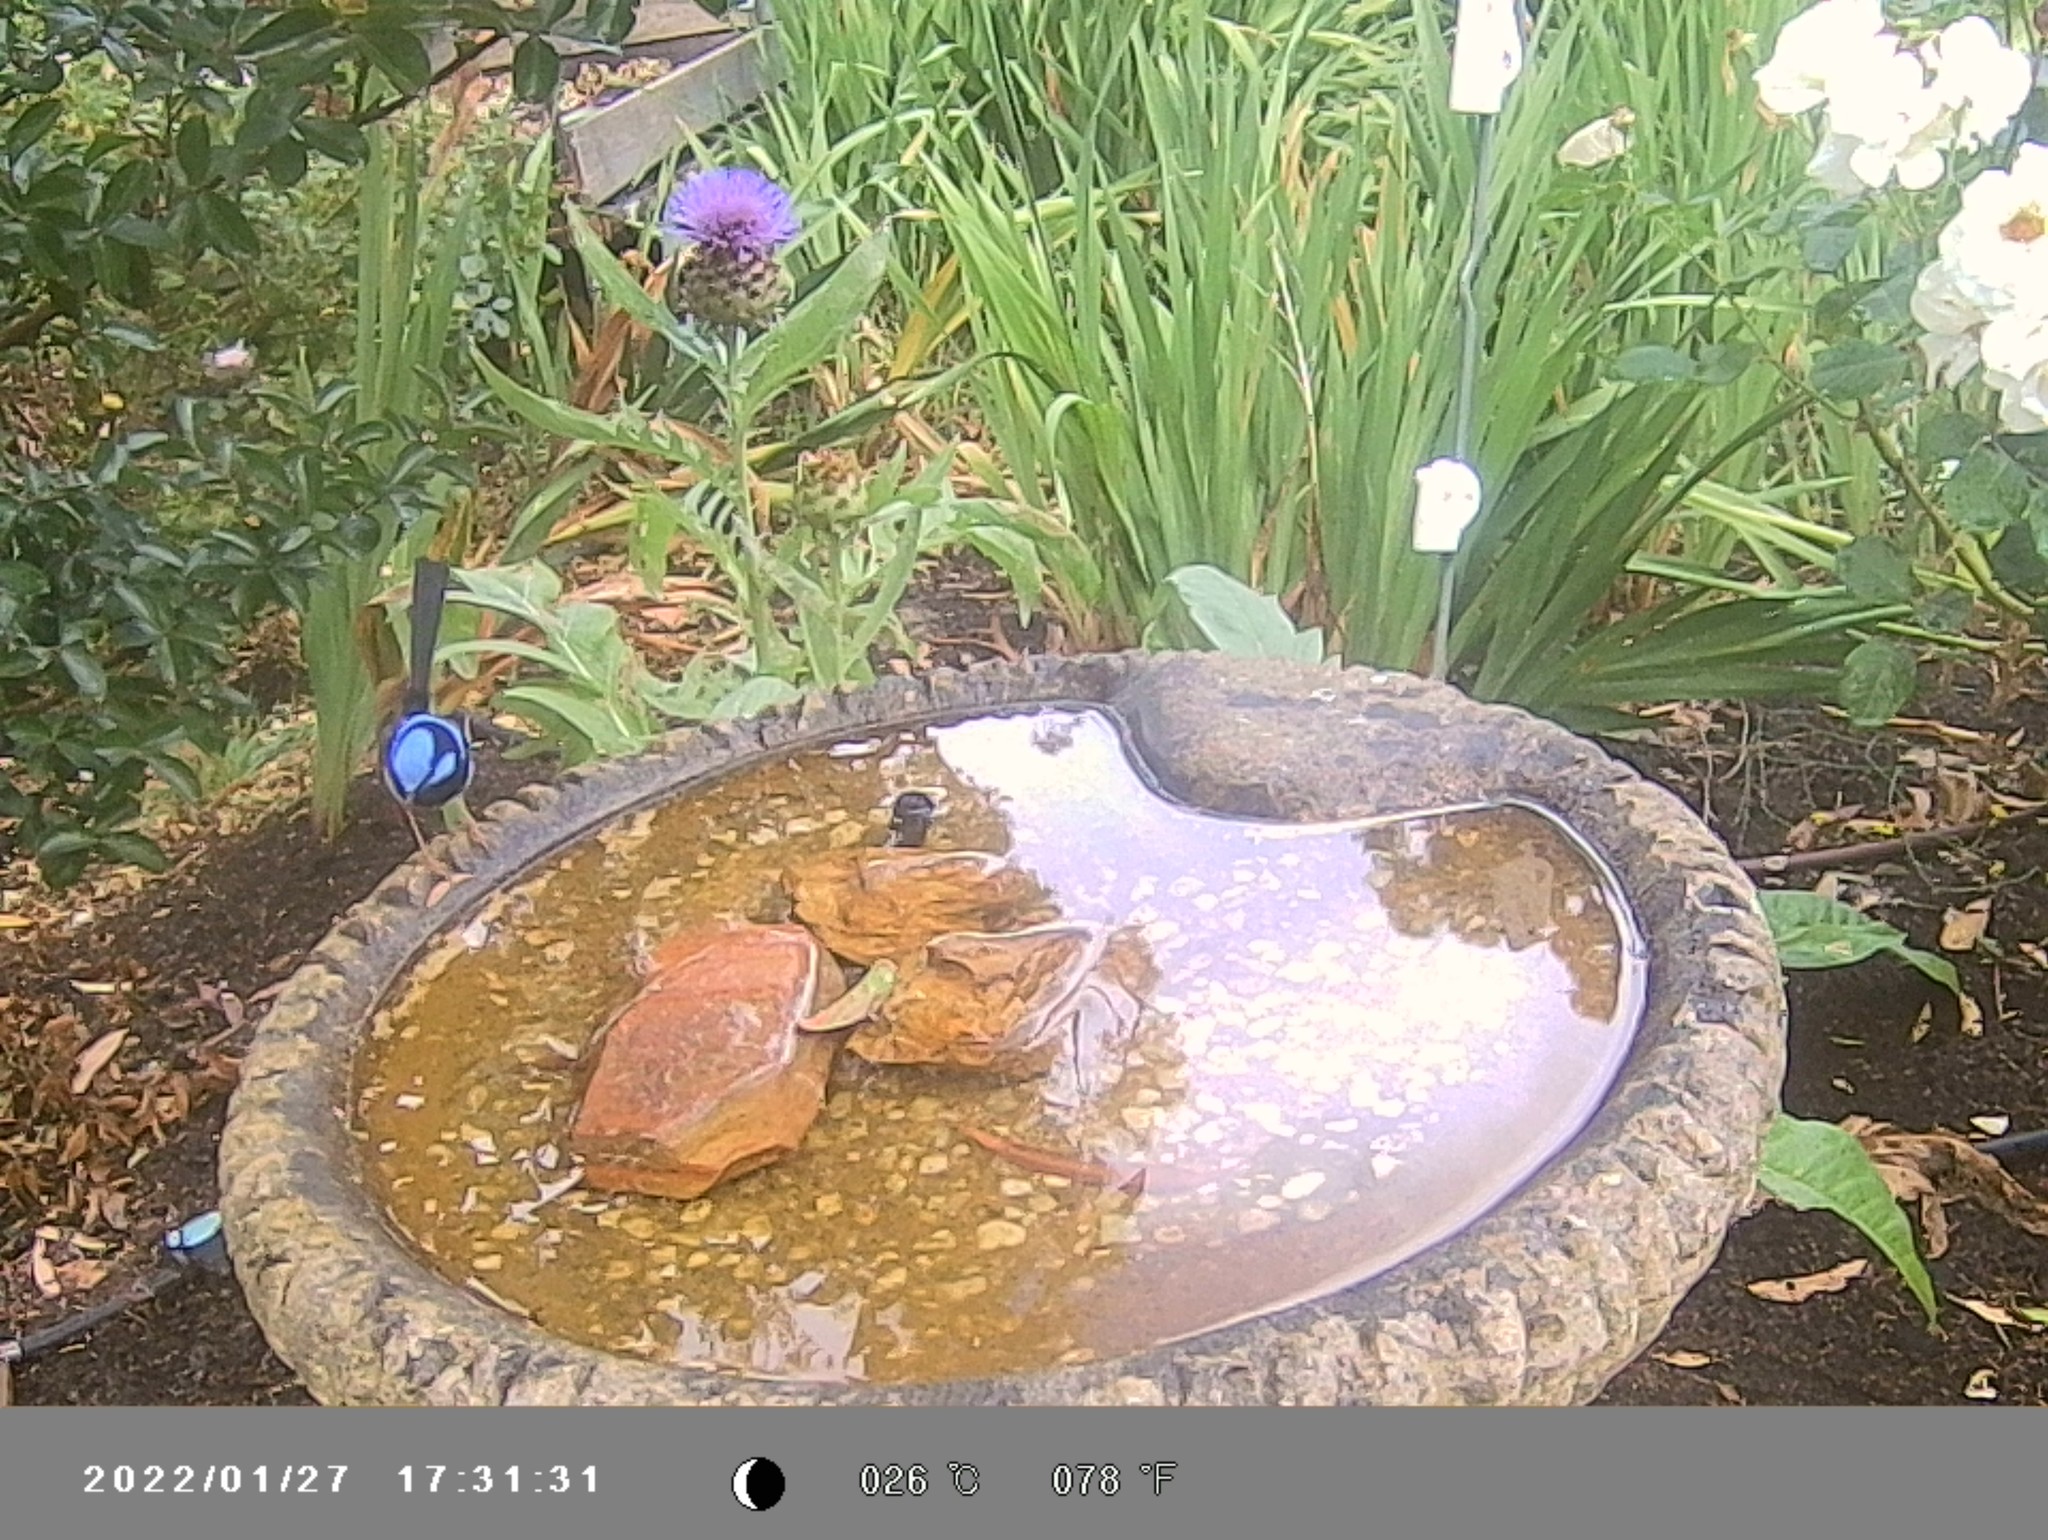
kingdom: Animalia
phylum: Chordata
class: Aves
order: Passeriformes
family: Maluridae
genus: Malurus
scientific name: Malurus cyaneus
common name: Superb fairywren
